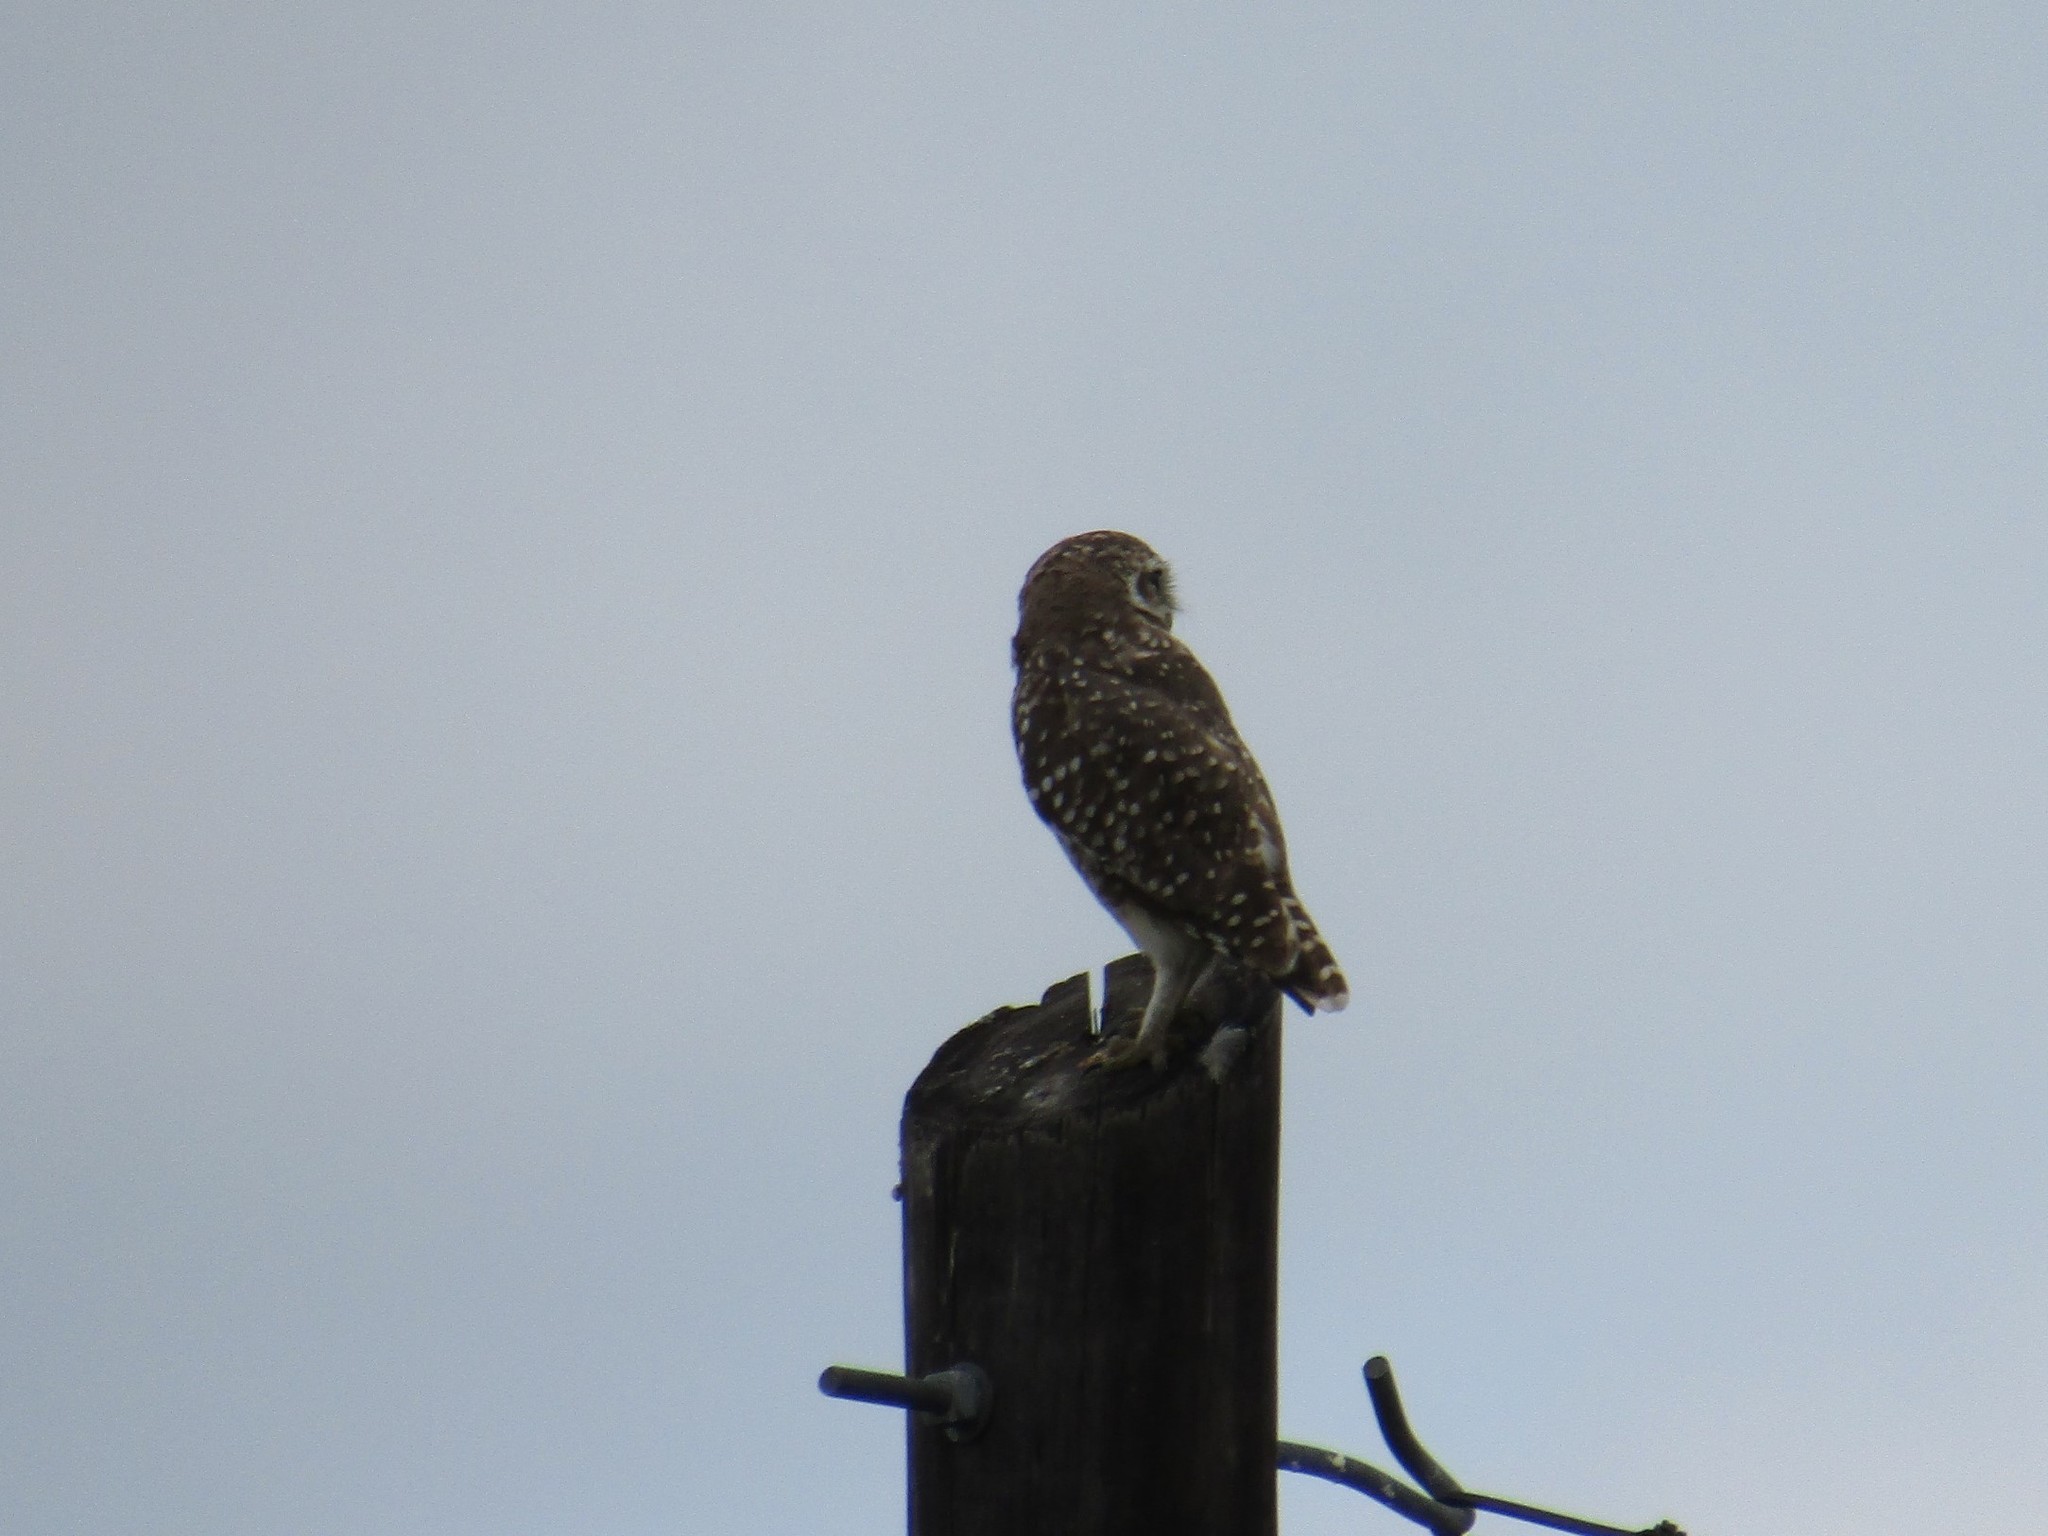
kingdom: Animalia
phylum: Chordata
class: Aves
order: Strigiformes
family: Strigidae
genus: Athene
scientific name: Athene cunicularia
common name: Burrowing owl
